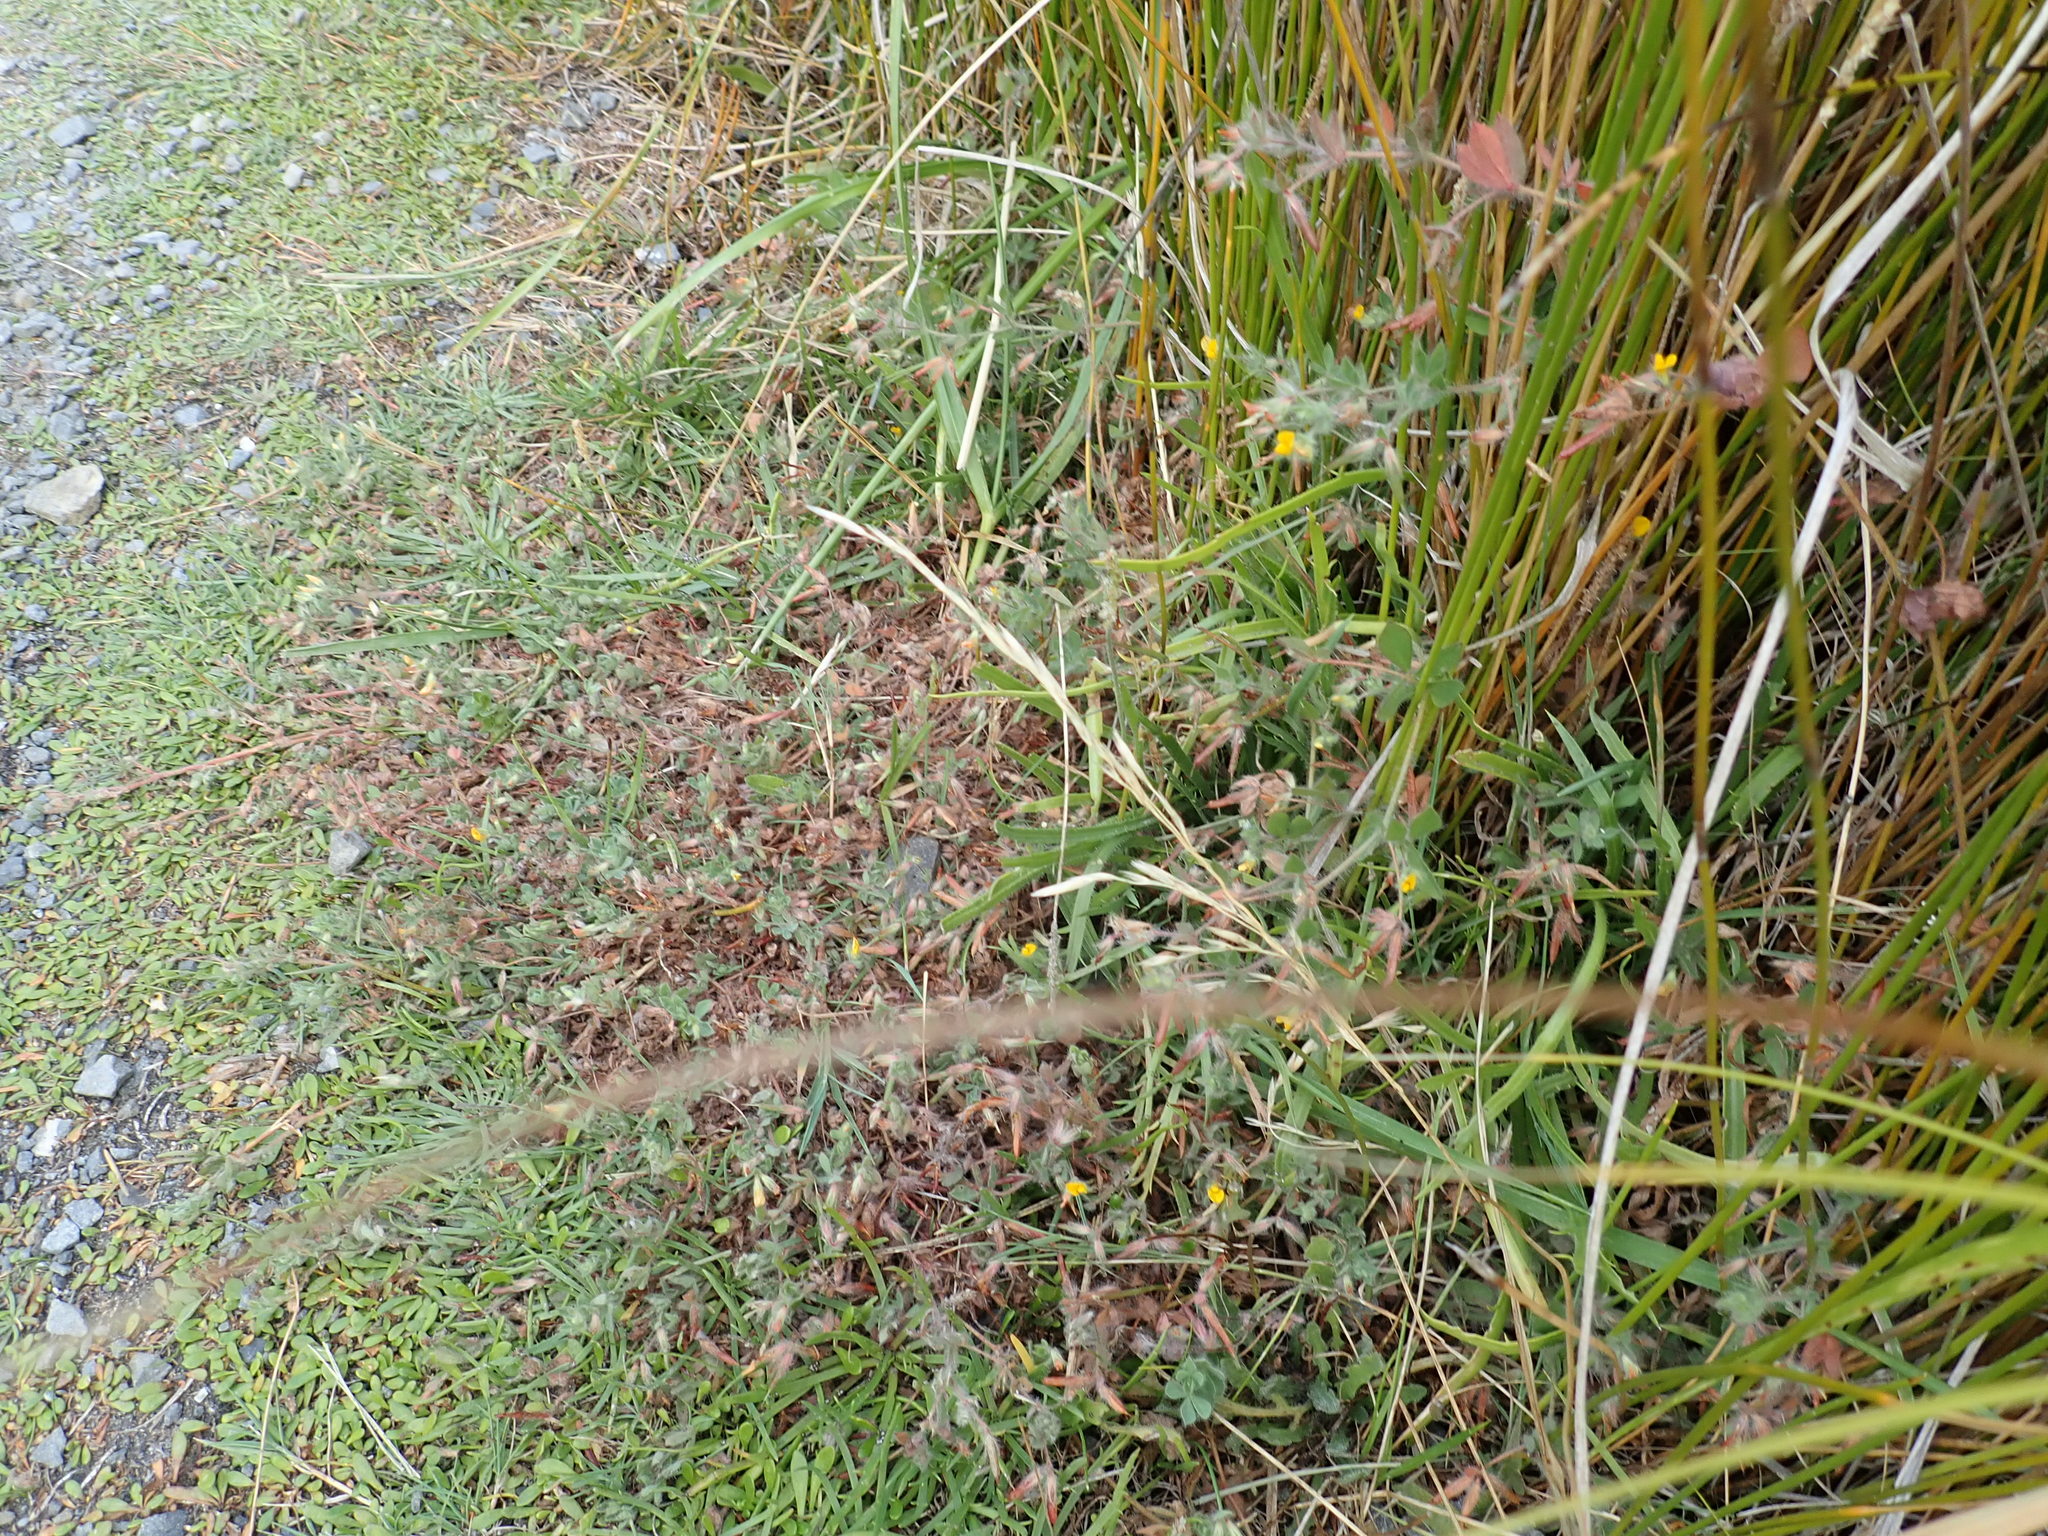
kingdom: Plantae
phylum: Tracheophyta
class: Magnoliopsida
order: Fabales
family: Fabaceae
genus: Lotus
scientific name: Lotus subbiflorus
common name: Hairy bird's-foot trefoil
